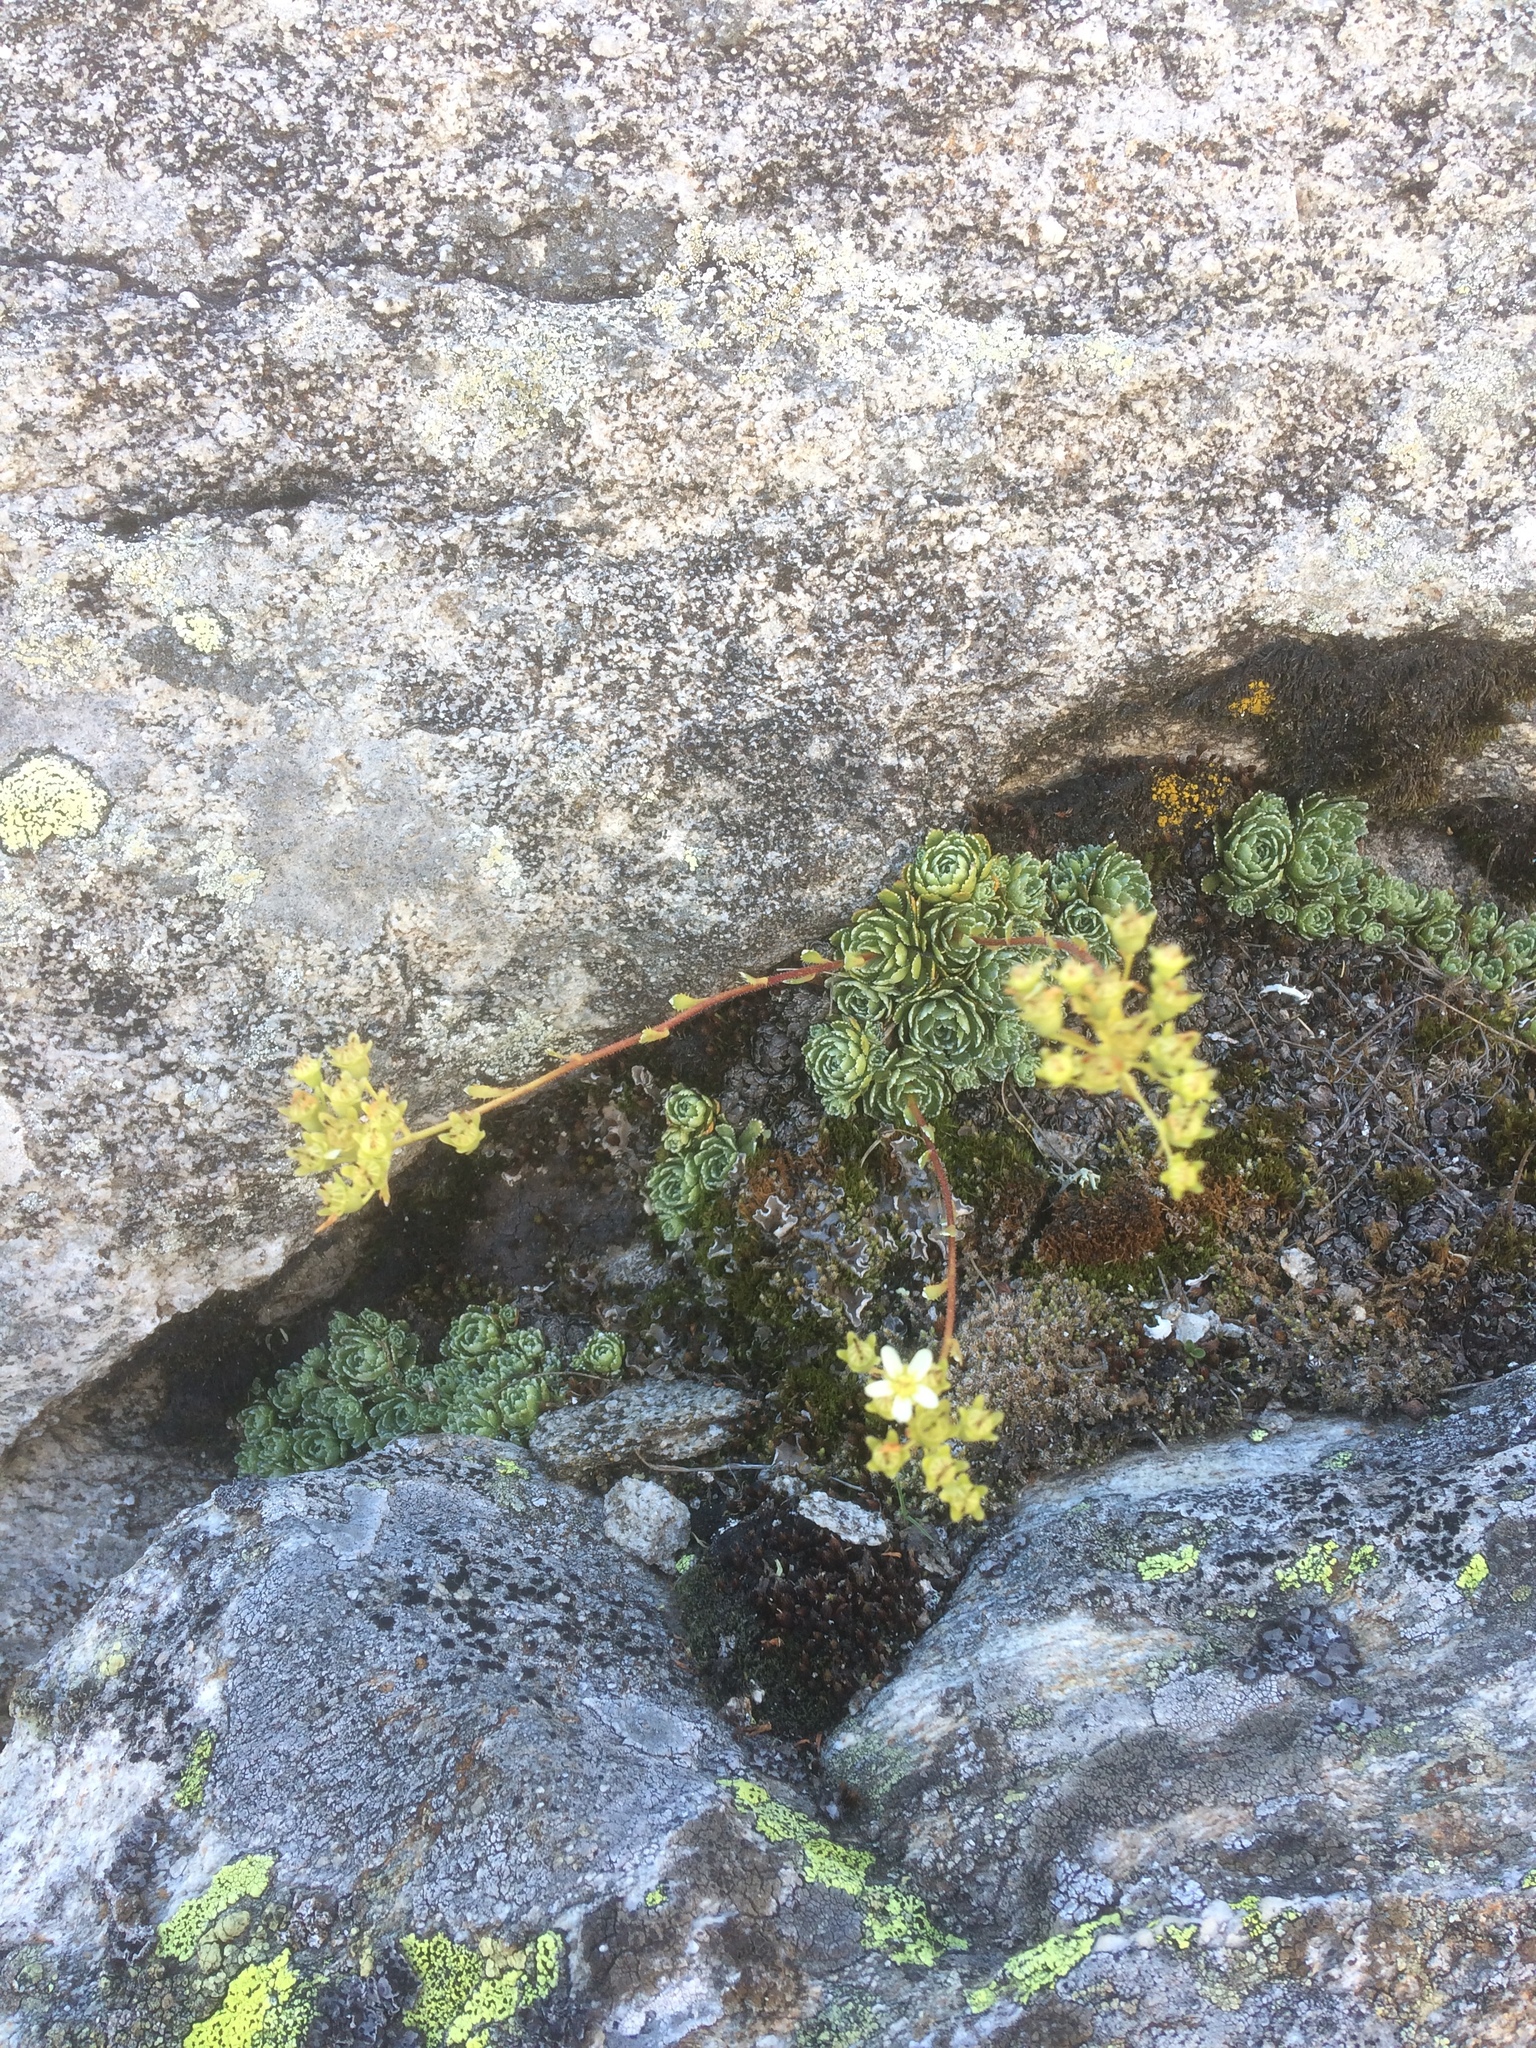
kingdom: Plantae
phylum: Tracheophyta
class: Magnoliopsida
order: Saxifragales
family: Saxifragaceae
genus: Saxifraga
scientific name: Saxifraga paniculata
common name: Livelong saxifrage
